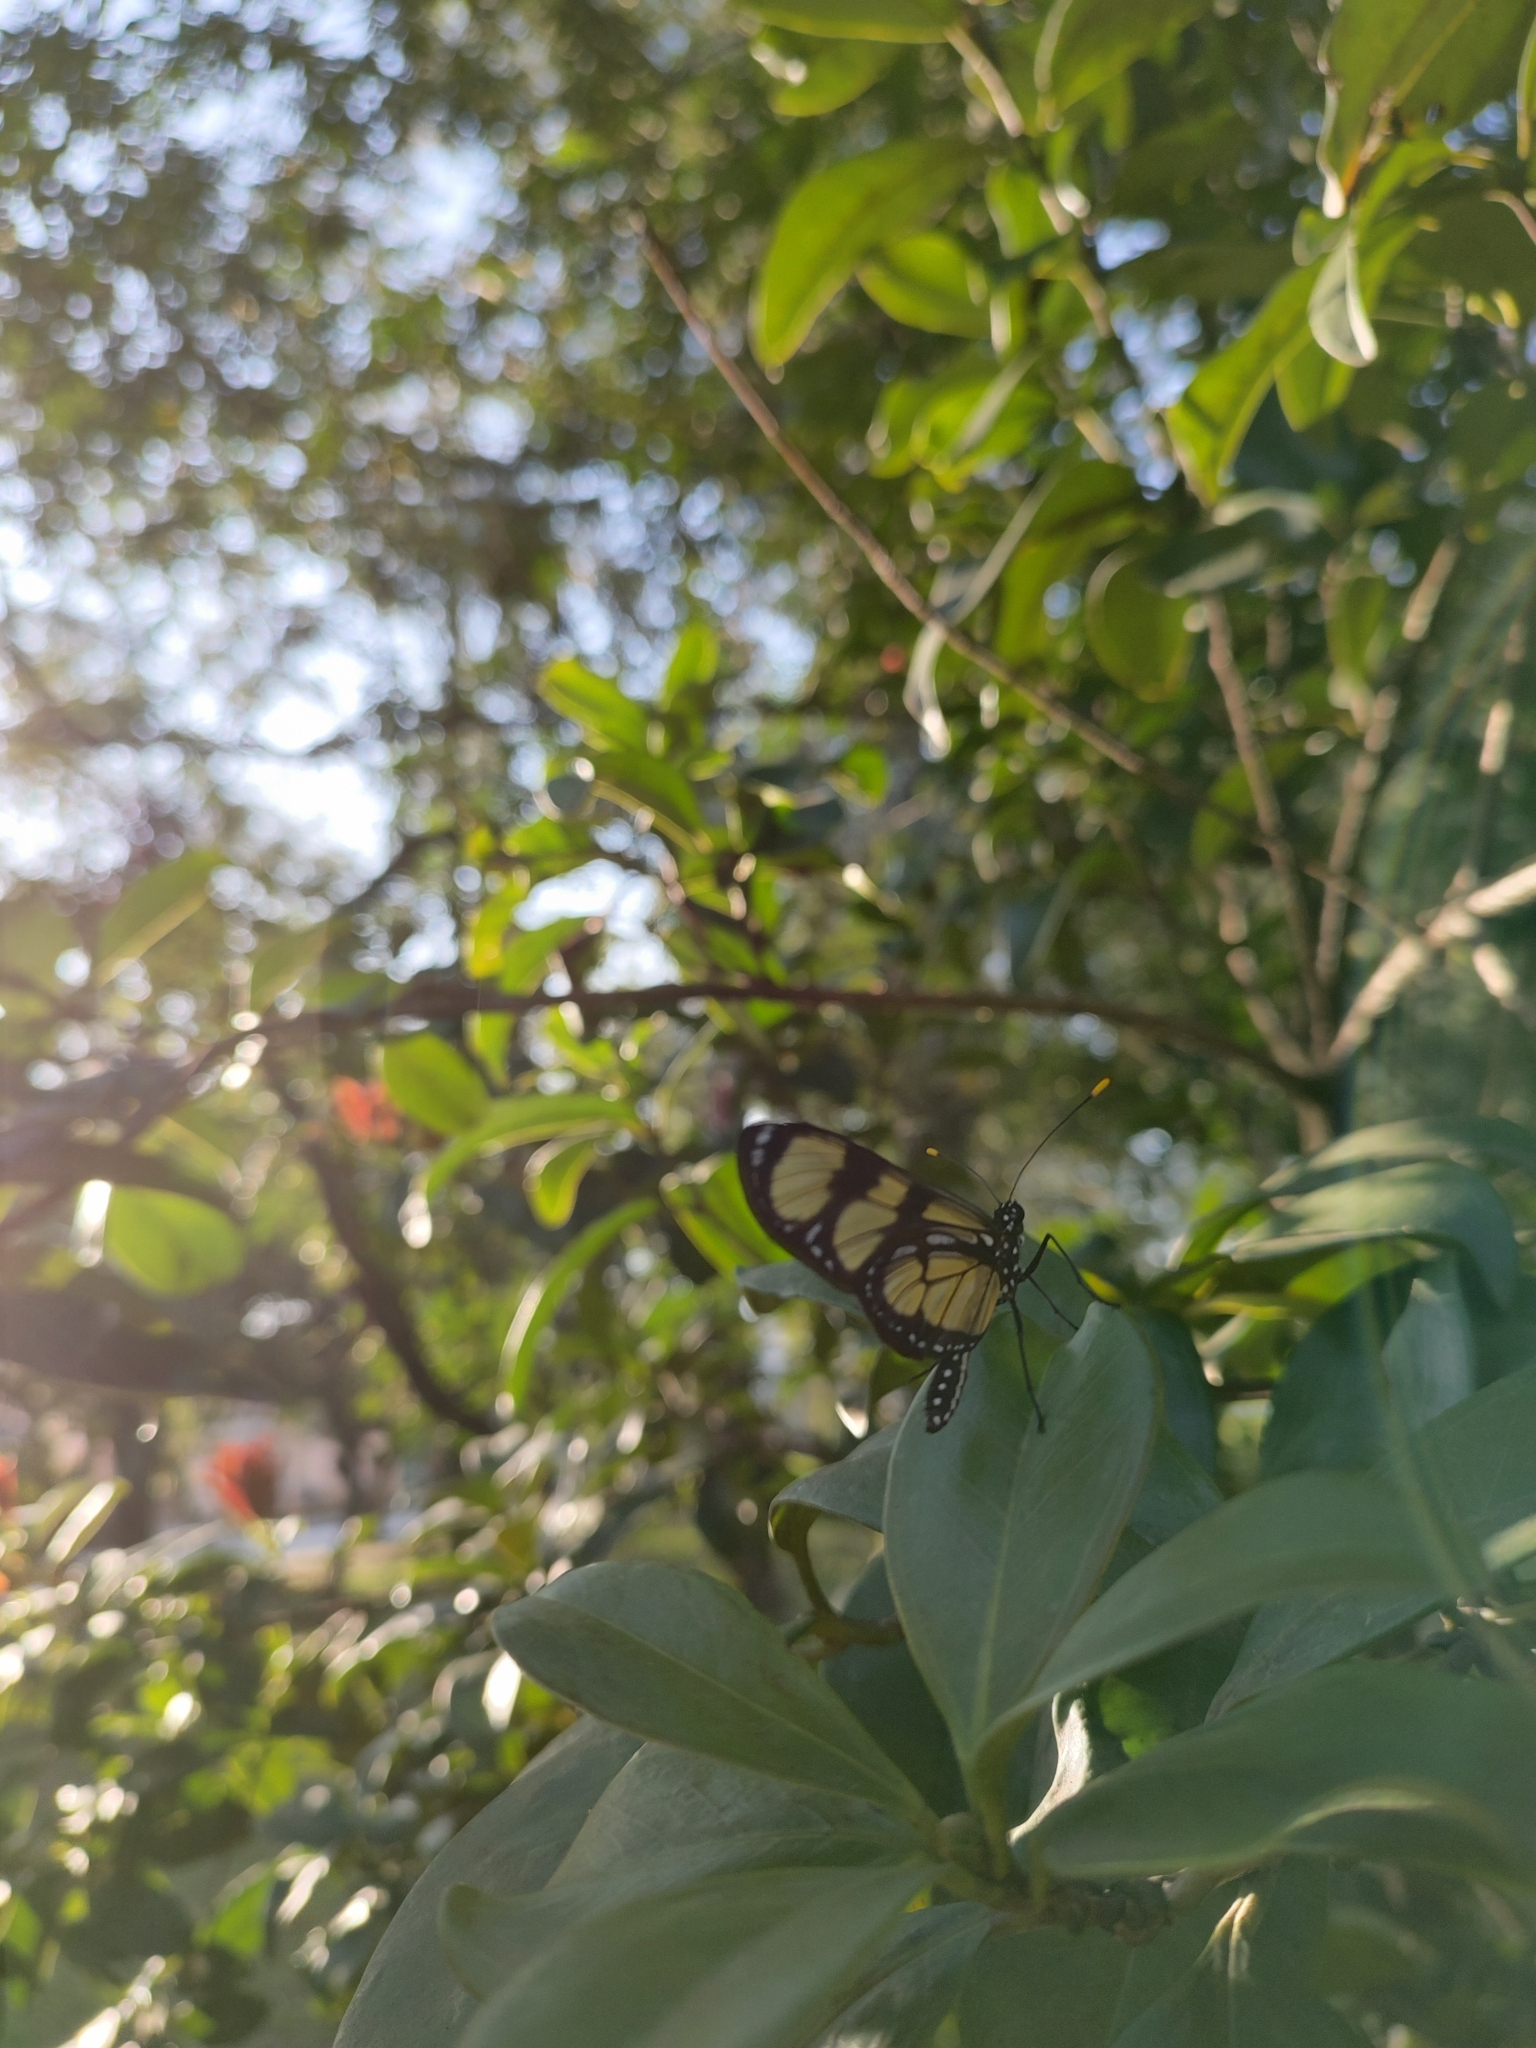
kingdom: Animalia
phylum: Arthropoda
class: Insecta
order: Lepidoptera
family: Nymphalidae
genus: Methona
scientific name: Methona themisto
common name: Themisto amberwing
